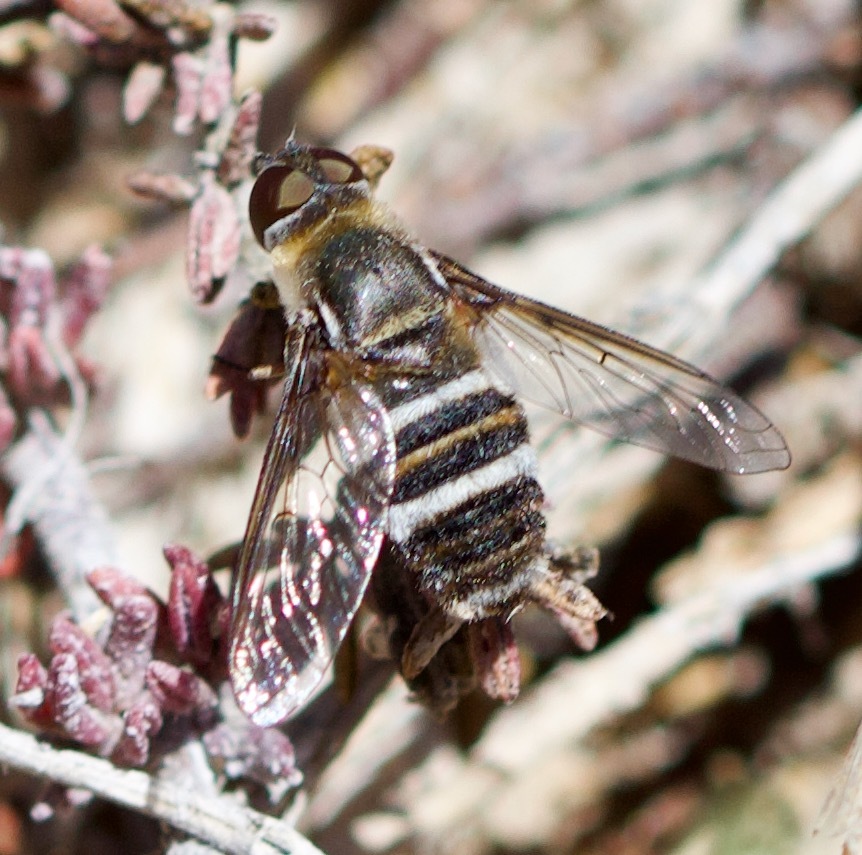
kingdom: Animalia
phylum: Arthropoda
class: Insecta
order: Diptera
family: Bombyliidae
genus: Villa
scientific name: Villa festiva
